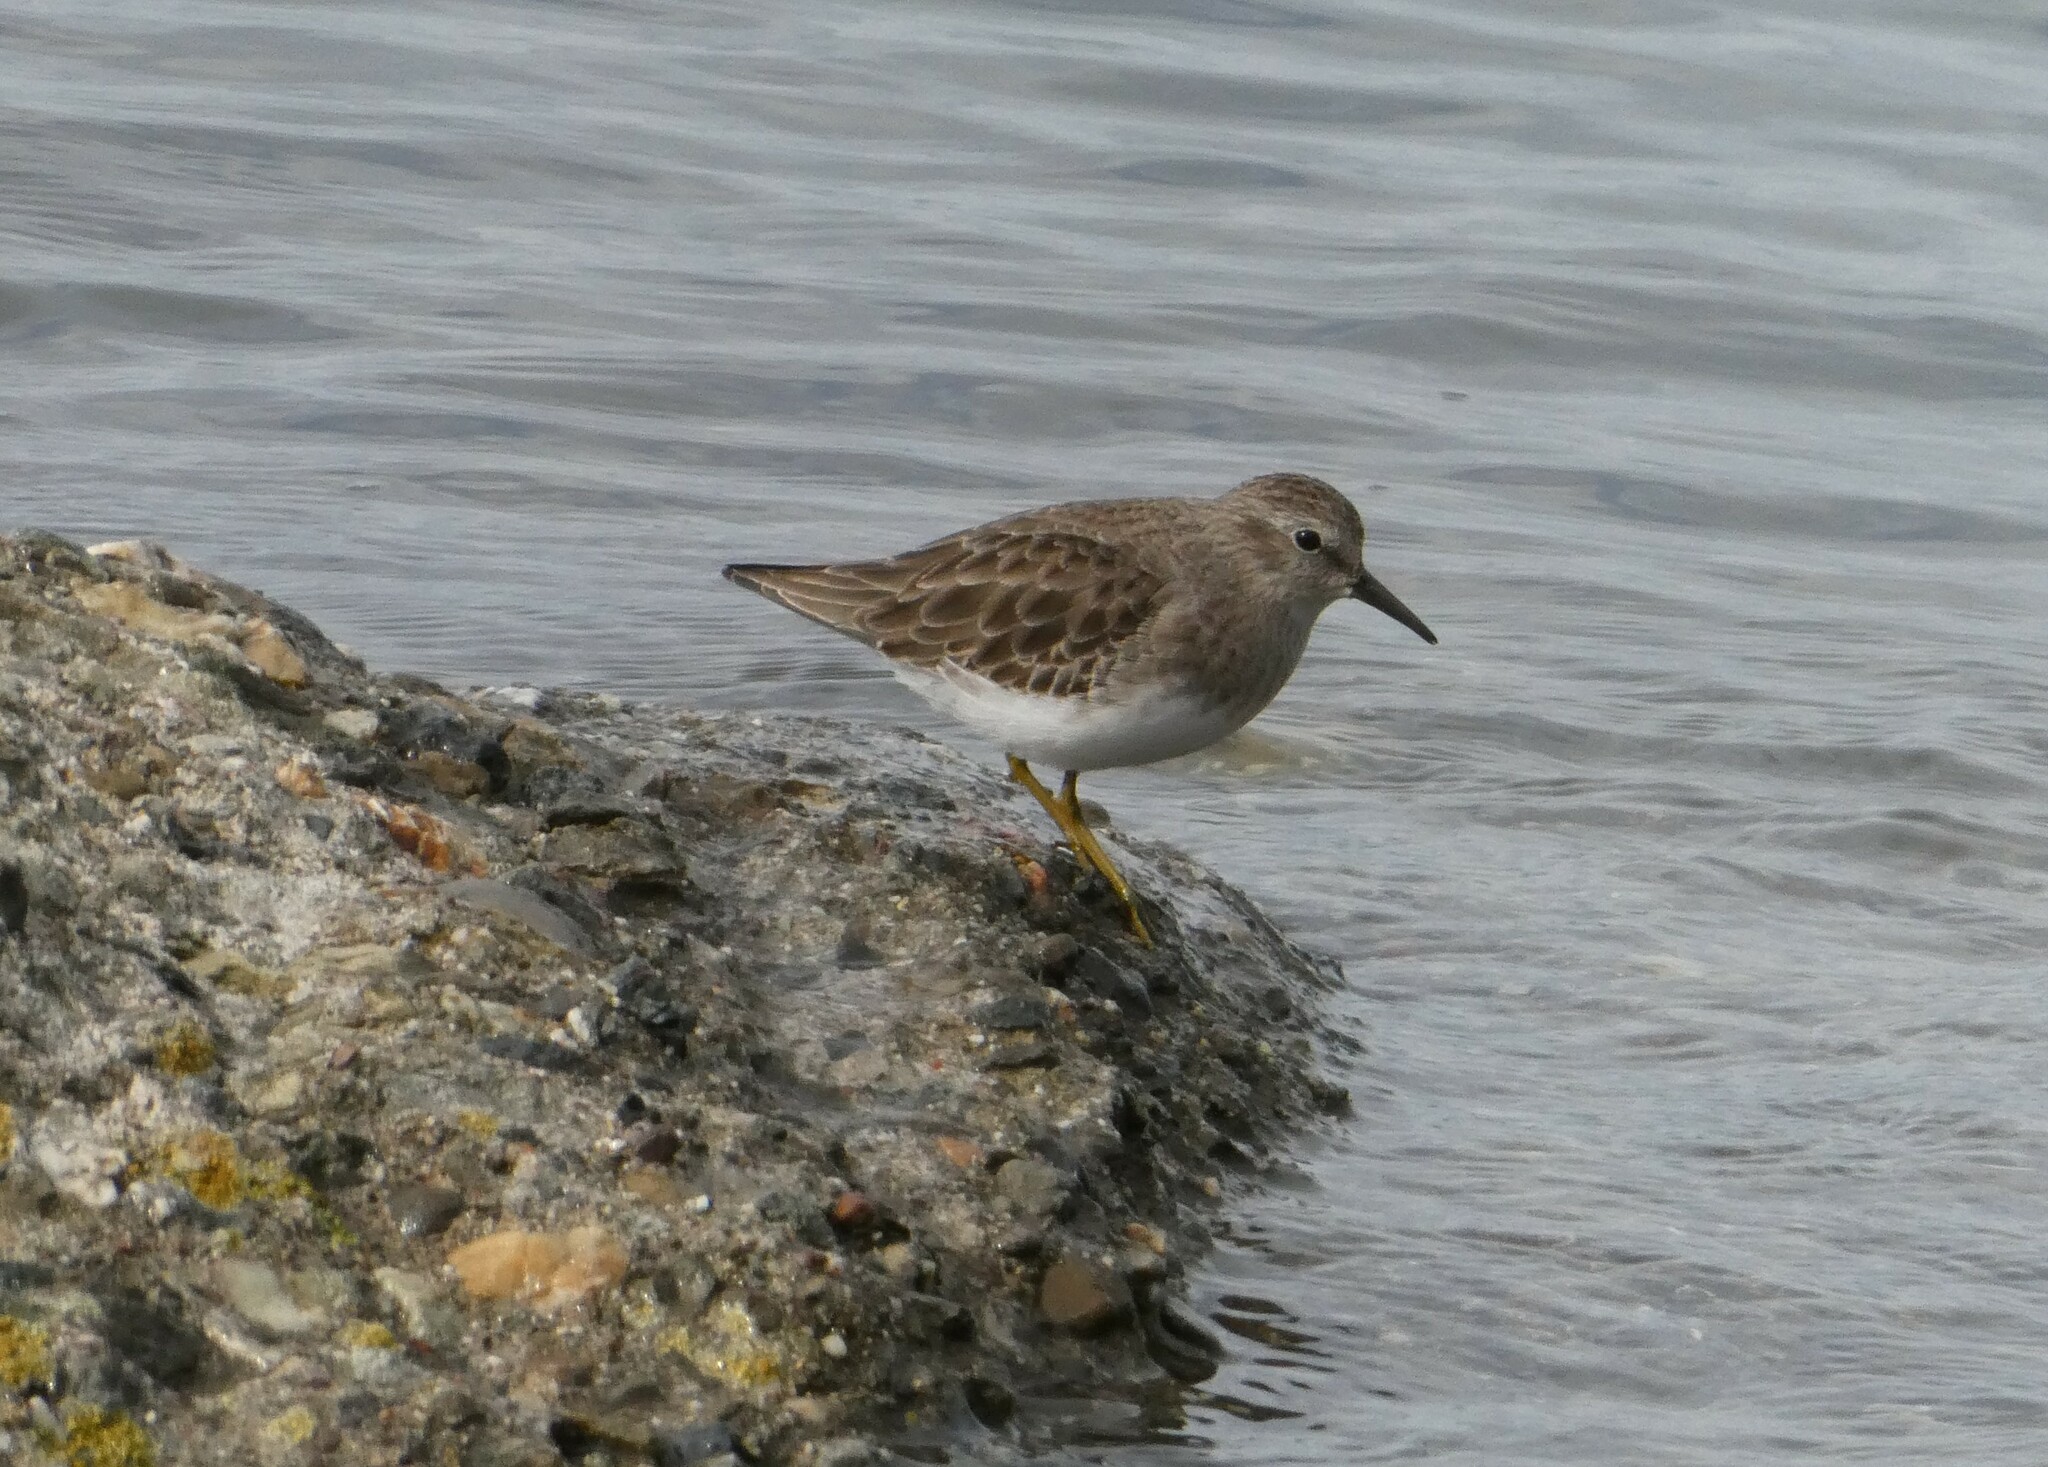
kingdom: Animalia
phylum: Chordata
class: Aves
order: Charadriiformes
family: Scolopacidae
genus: Calidris
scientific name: Calidris minutilla
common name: Least sandpiper
